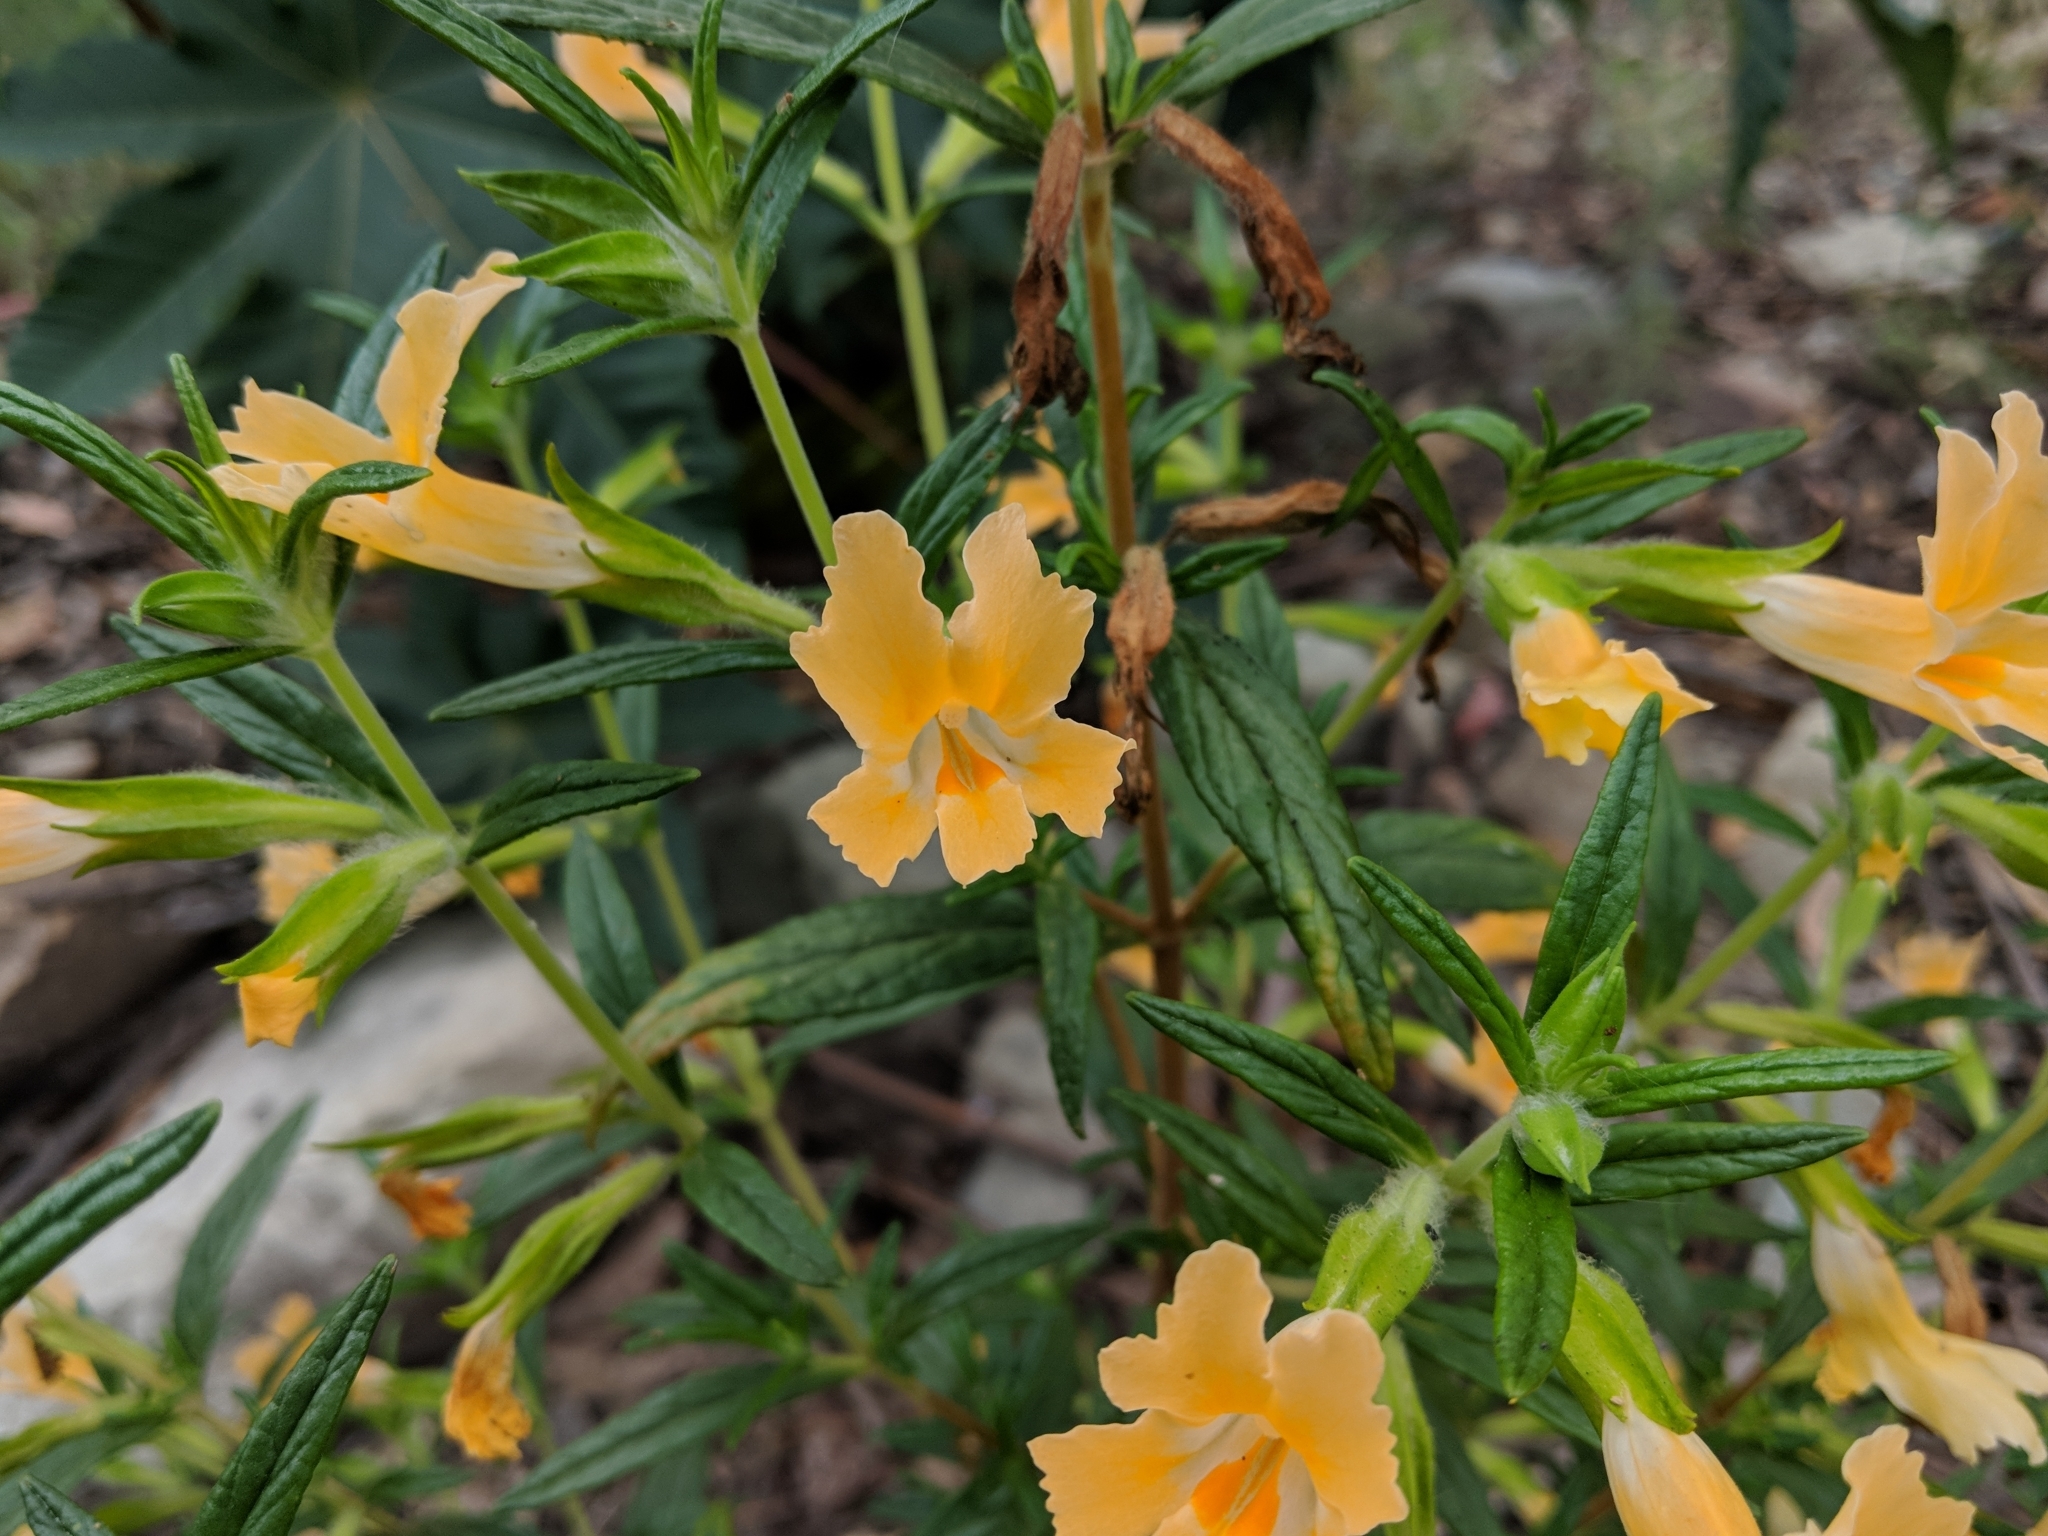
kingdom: Plantae
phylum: Tracheophyta
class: Magnoliopsida
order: Lamiales
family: Phrymaceae
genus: Diplacus
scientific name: Diplacus longiflorus
